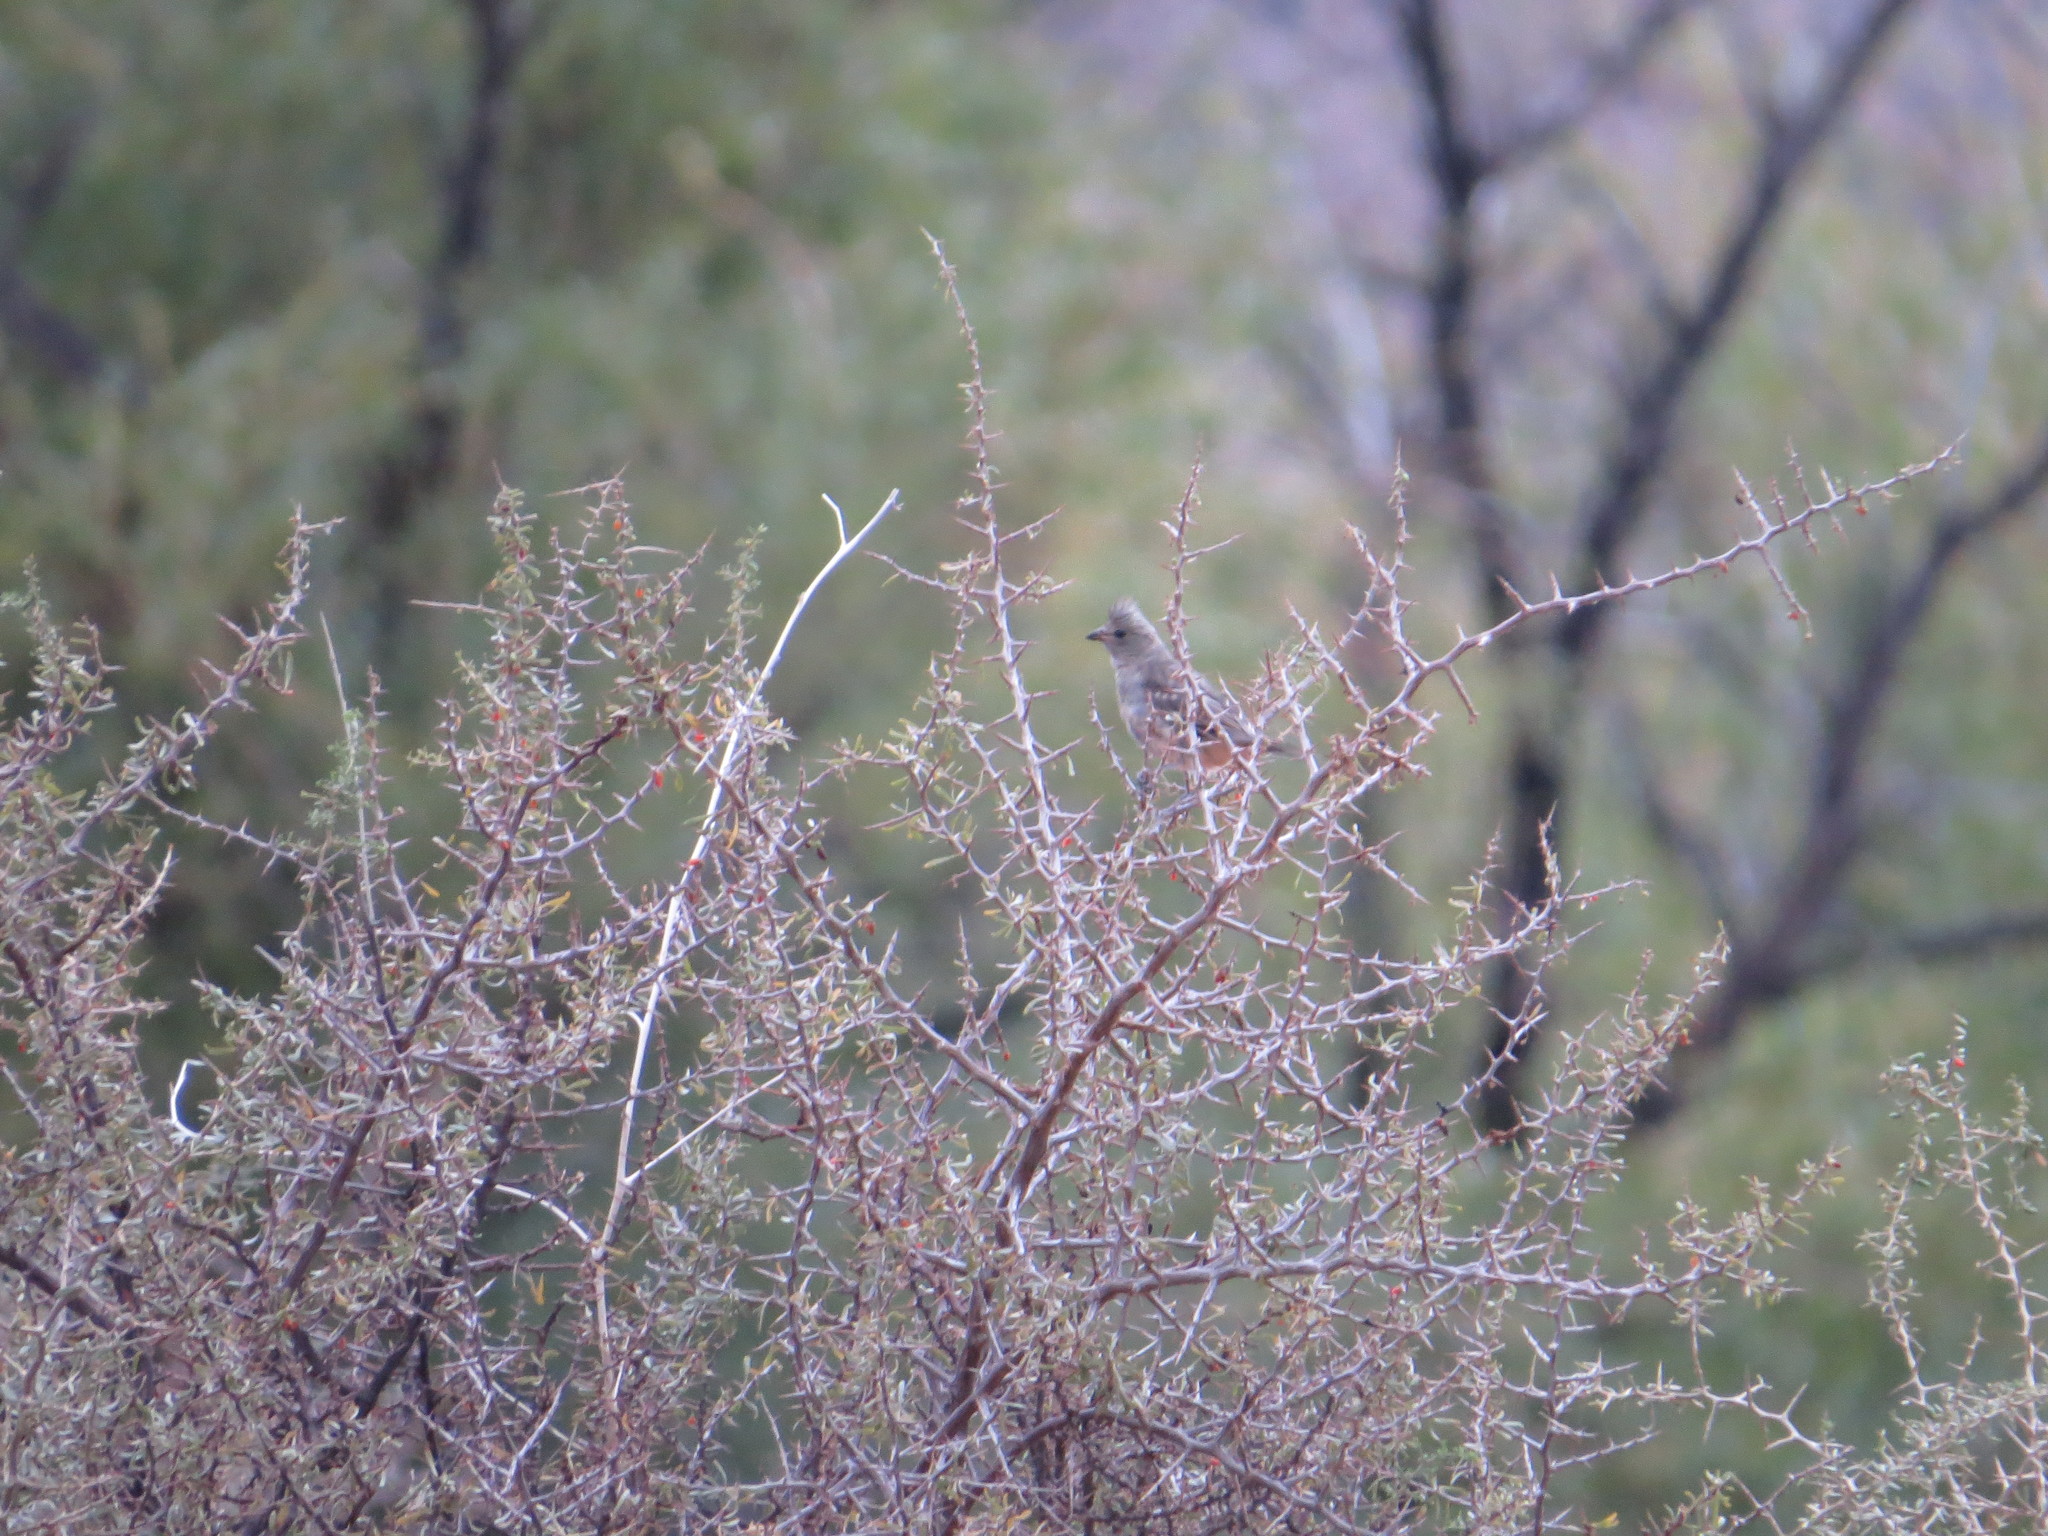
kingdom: Animalia
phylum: Chordata
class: Aves
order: Passeriformes
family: Cotingidae
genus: Phytotoma
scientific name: Phytotoma rutila
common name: White-tipped plantcutter
